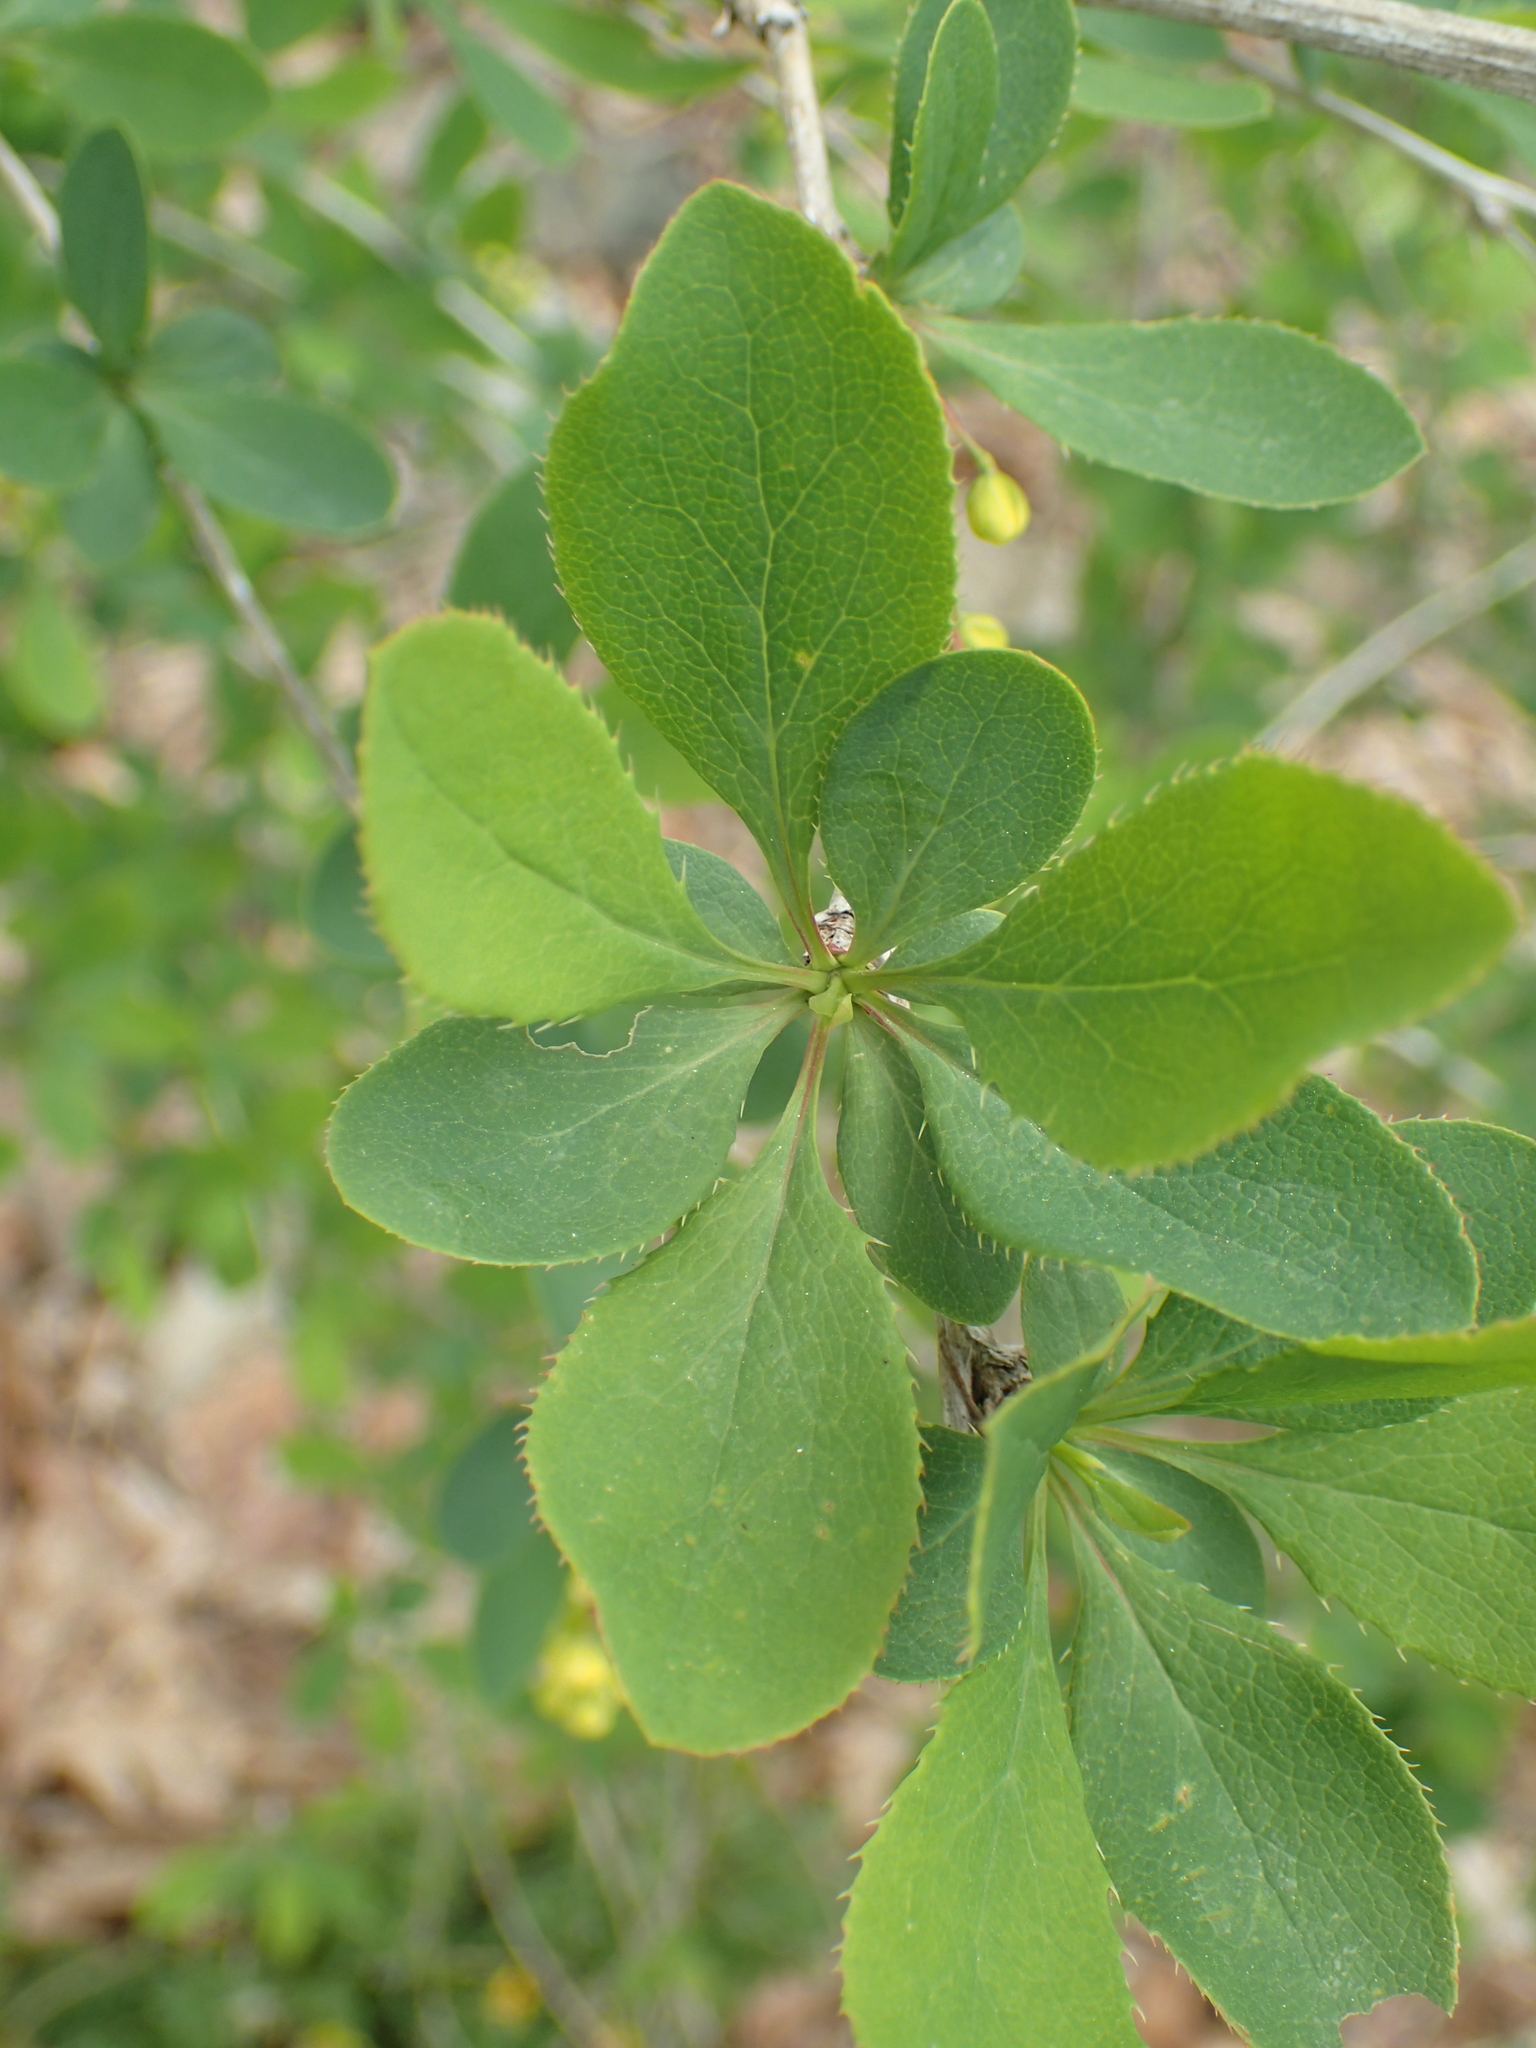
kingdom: Plantae
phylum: Tracheophyta
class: Magnoliopsida
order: Ranunculales
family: Berberidaceae
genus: Berberis
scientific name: Berberis vulgaris
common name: Barberry
